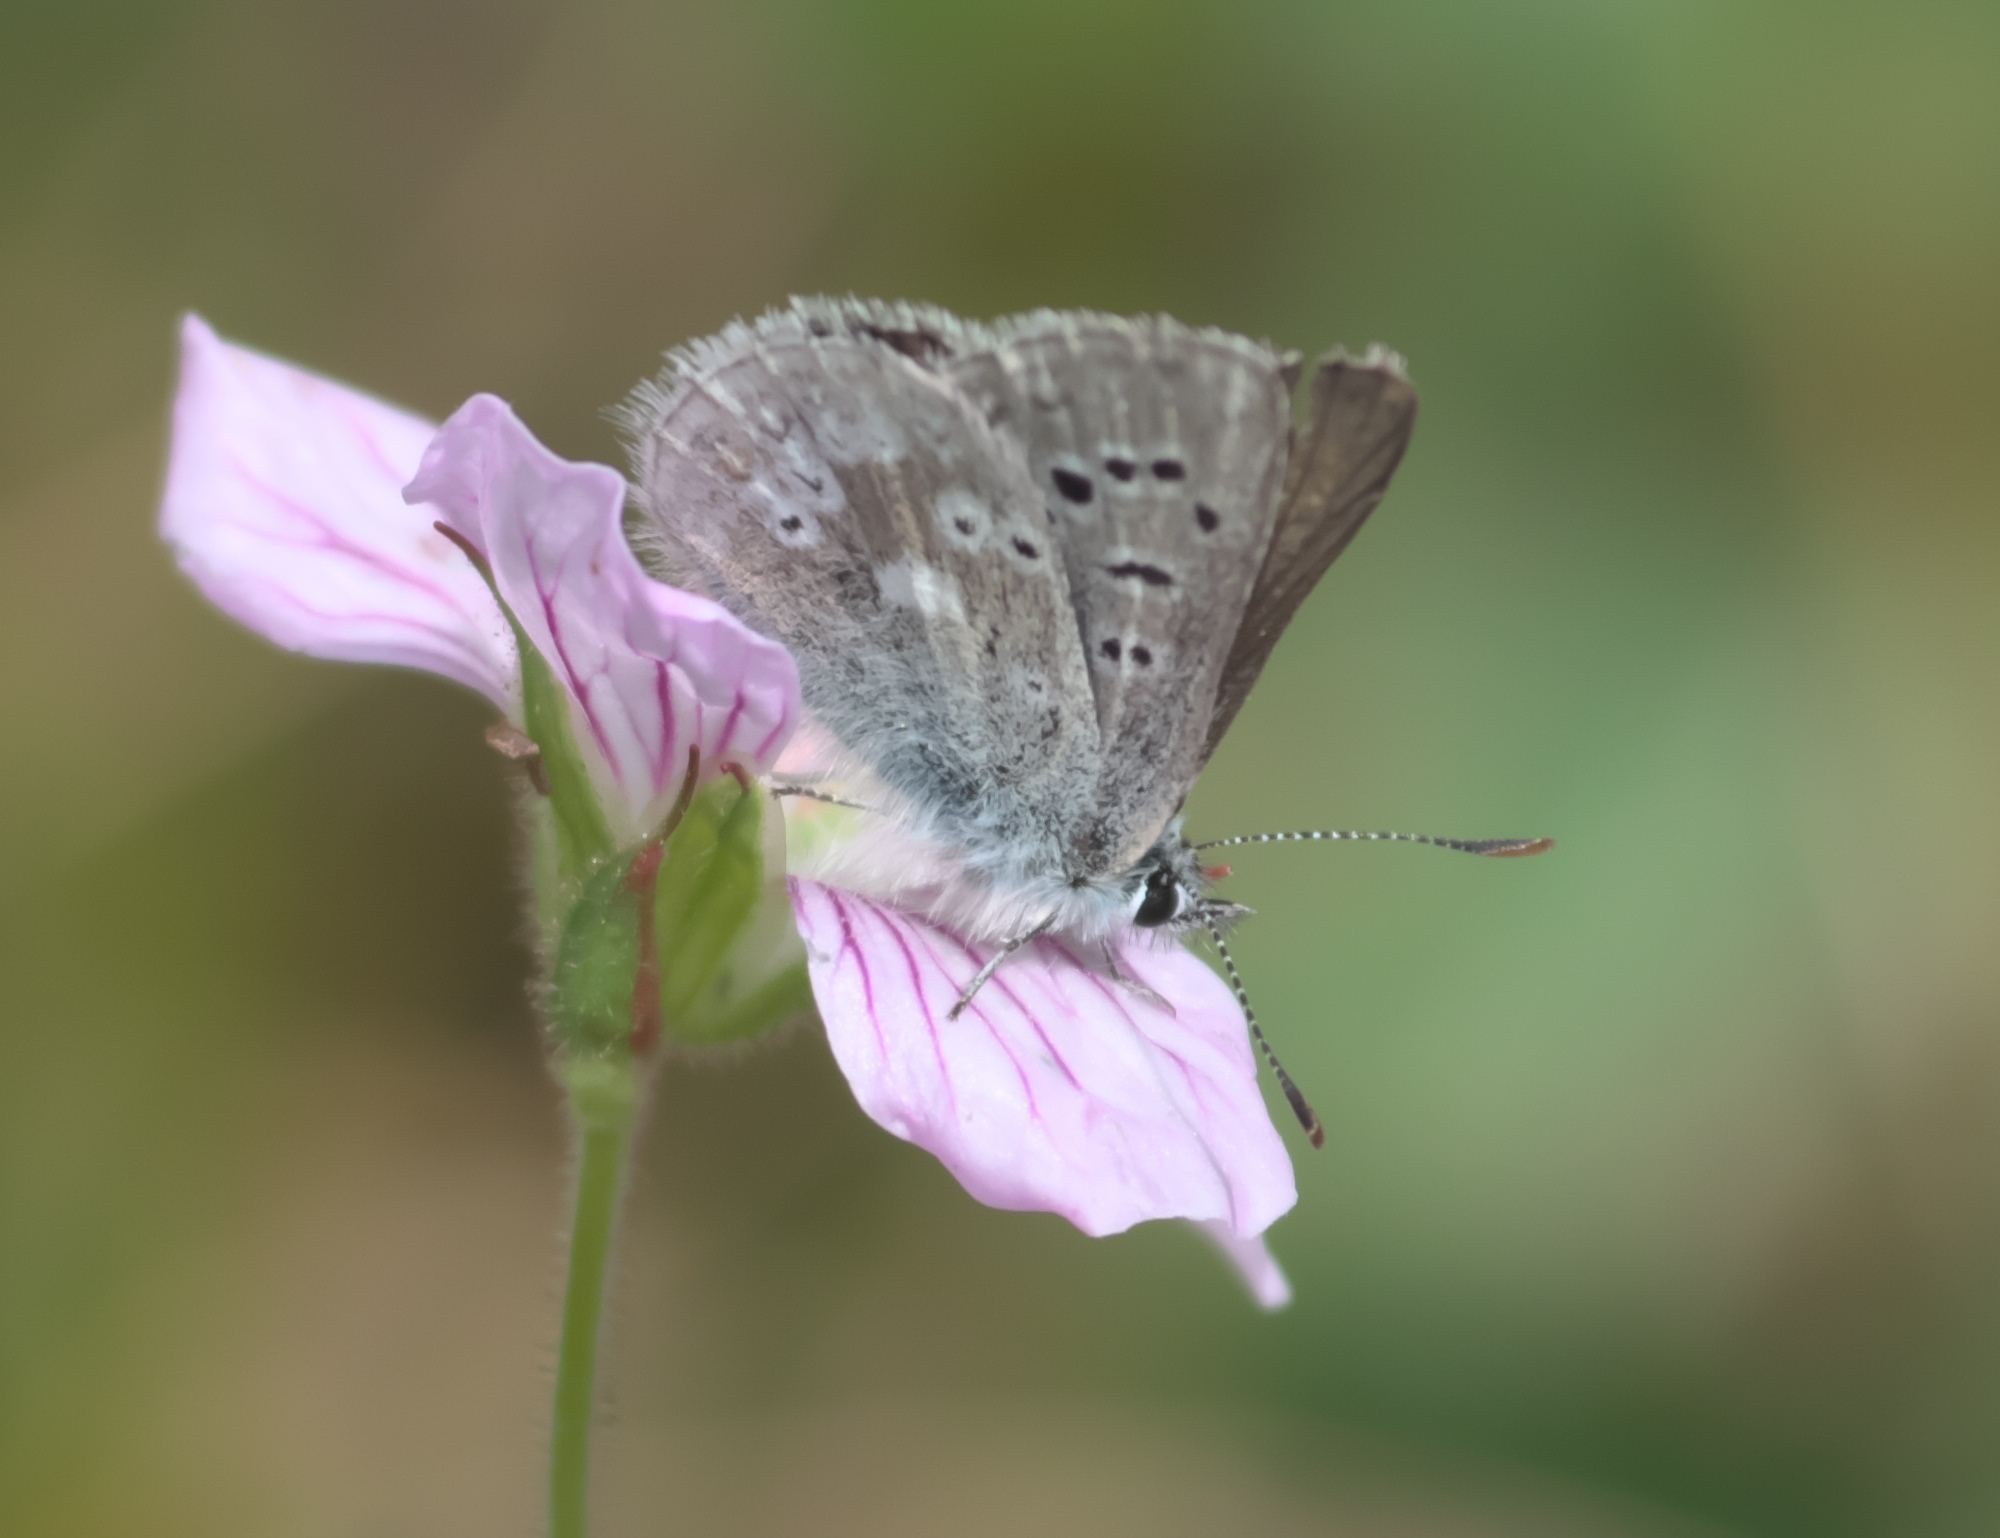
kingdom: Animalia
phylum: Arthropoda
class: Insecta
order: Lepidoptera
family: Lycaenidae
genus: Agriades
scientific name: Agriades glandon
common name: Glandon blue
